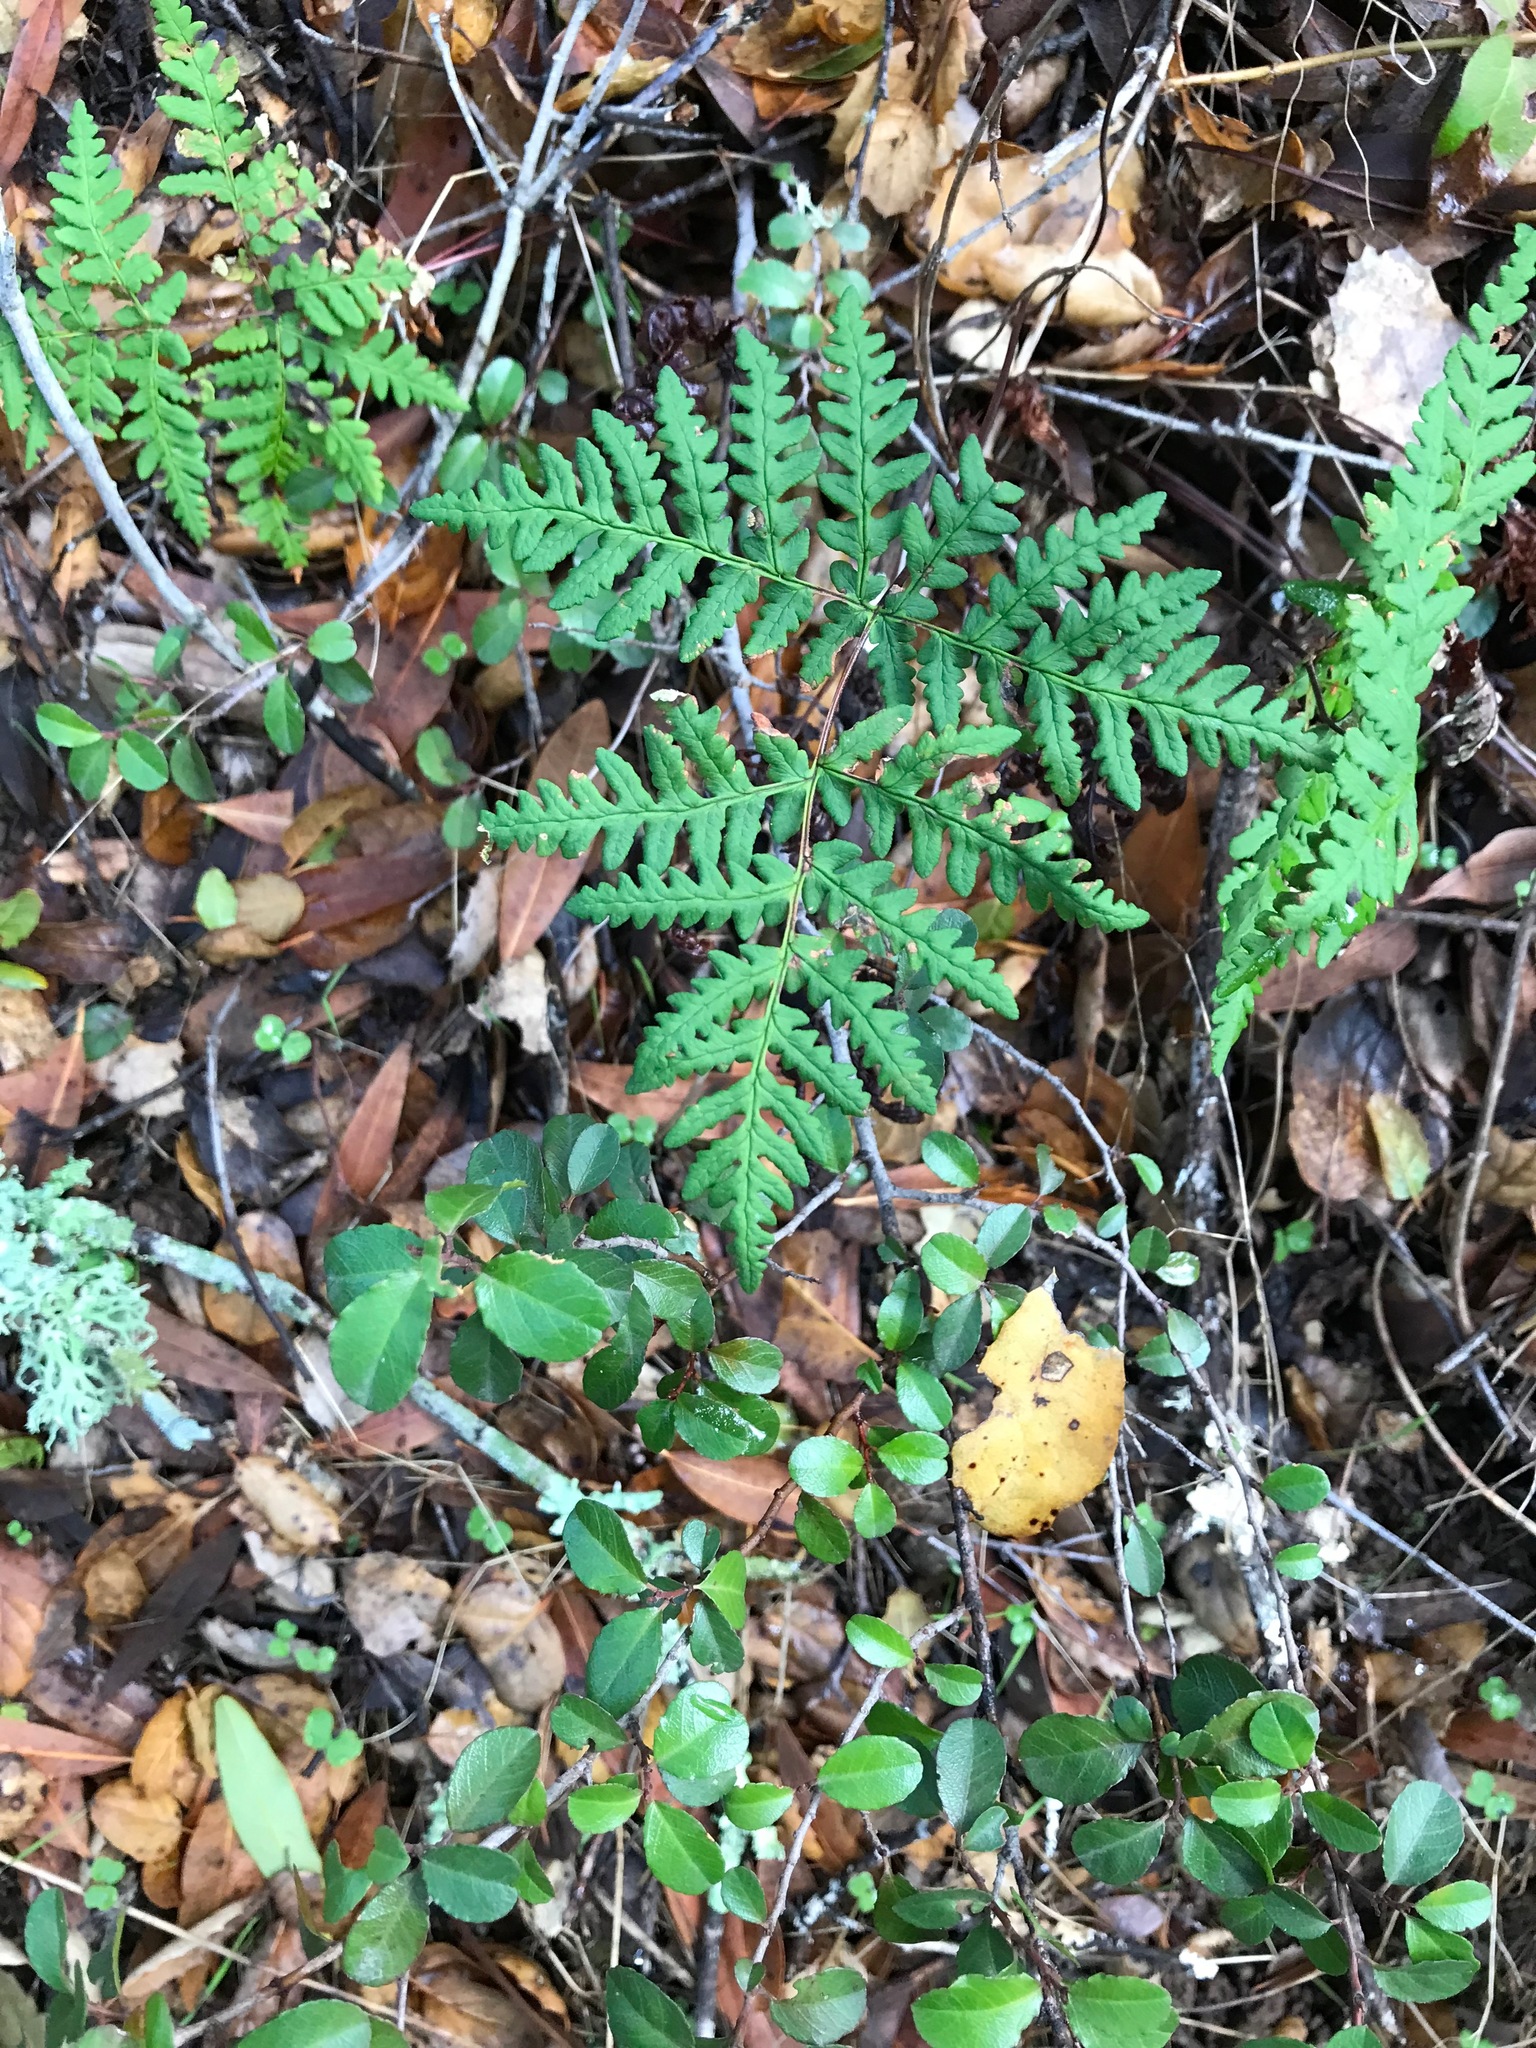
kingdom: Plantae
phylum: Tracheophyta
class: Polypodiopsida
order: Polypodiales
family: Pteridaceae
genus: Pentagramma
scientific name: Pentagramma triangularis
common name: Gold fern
